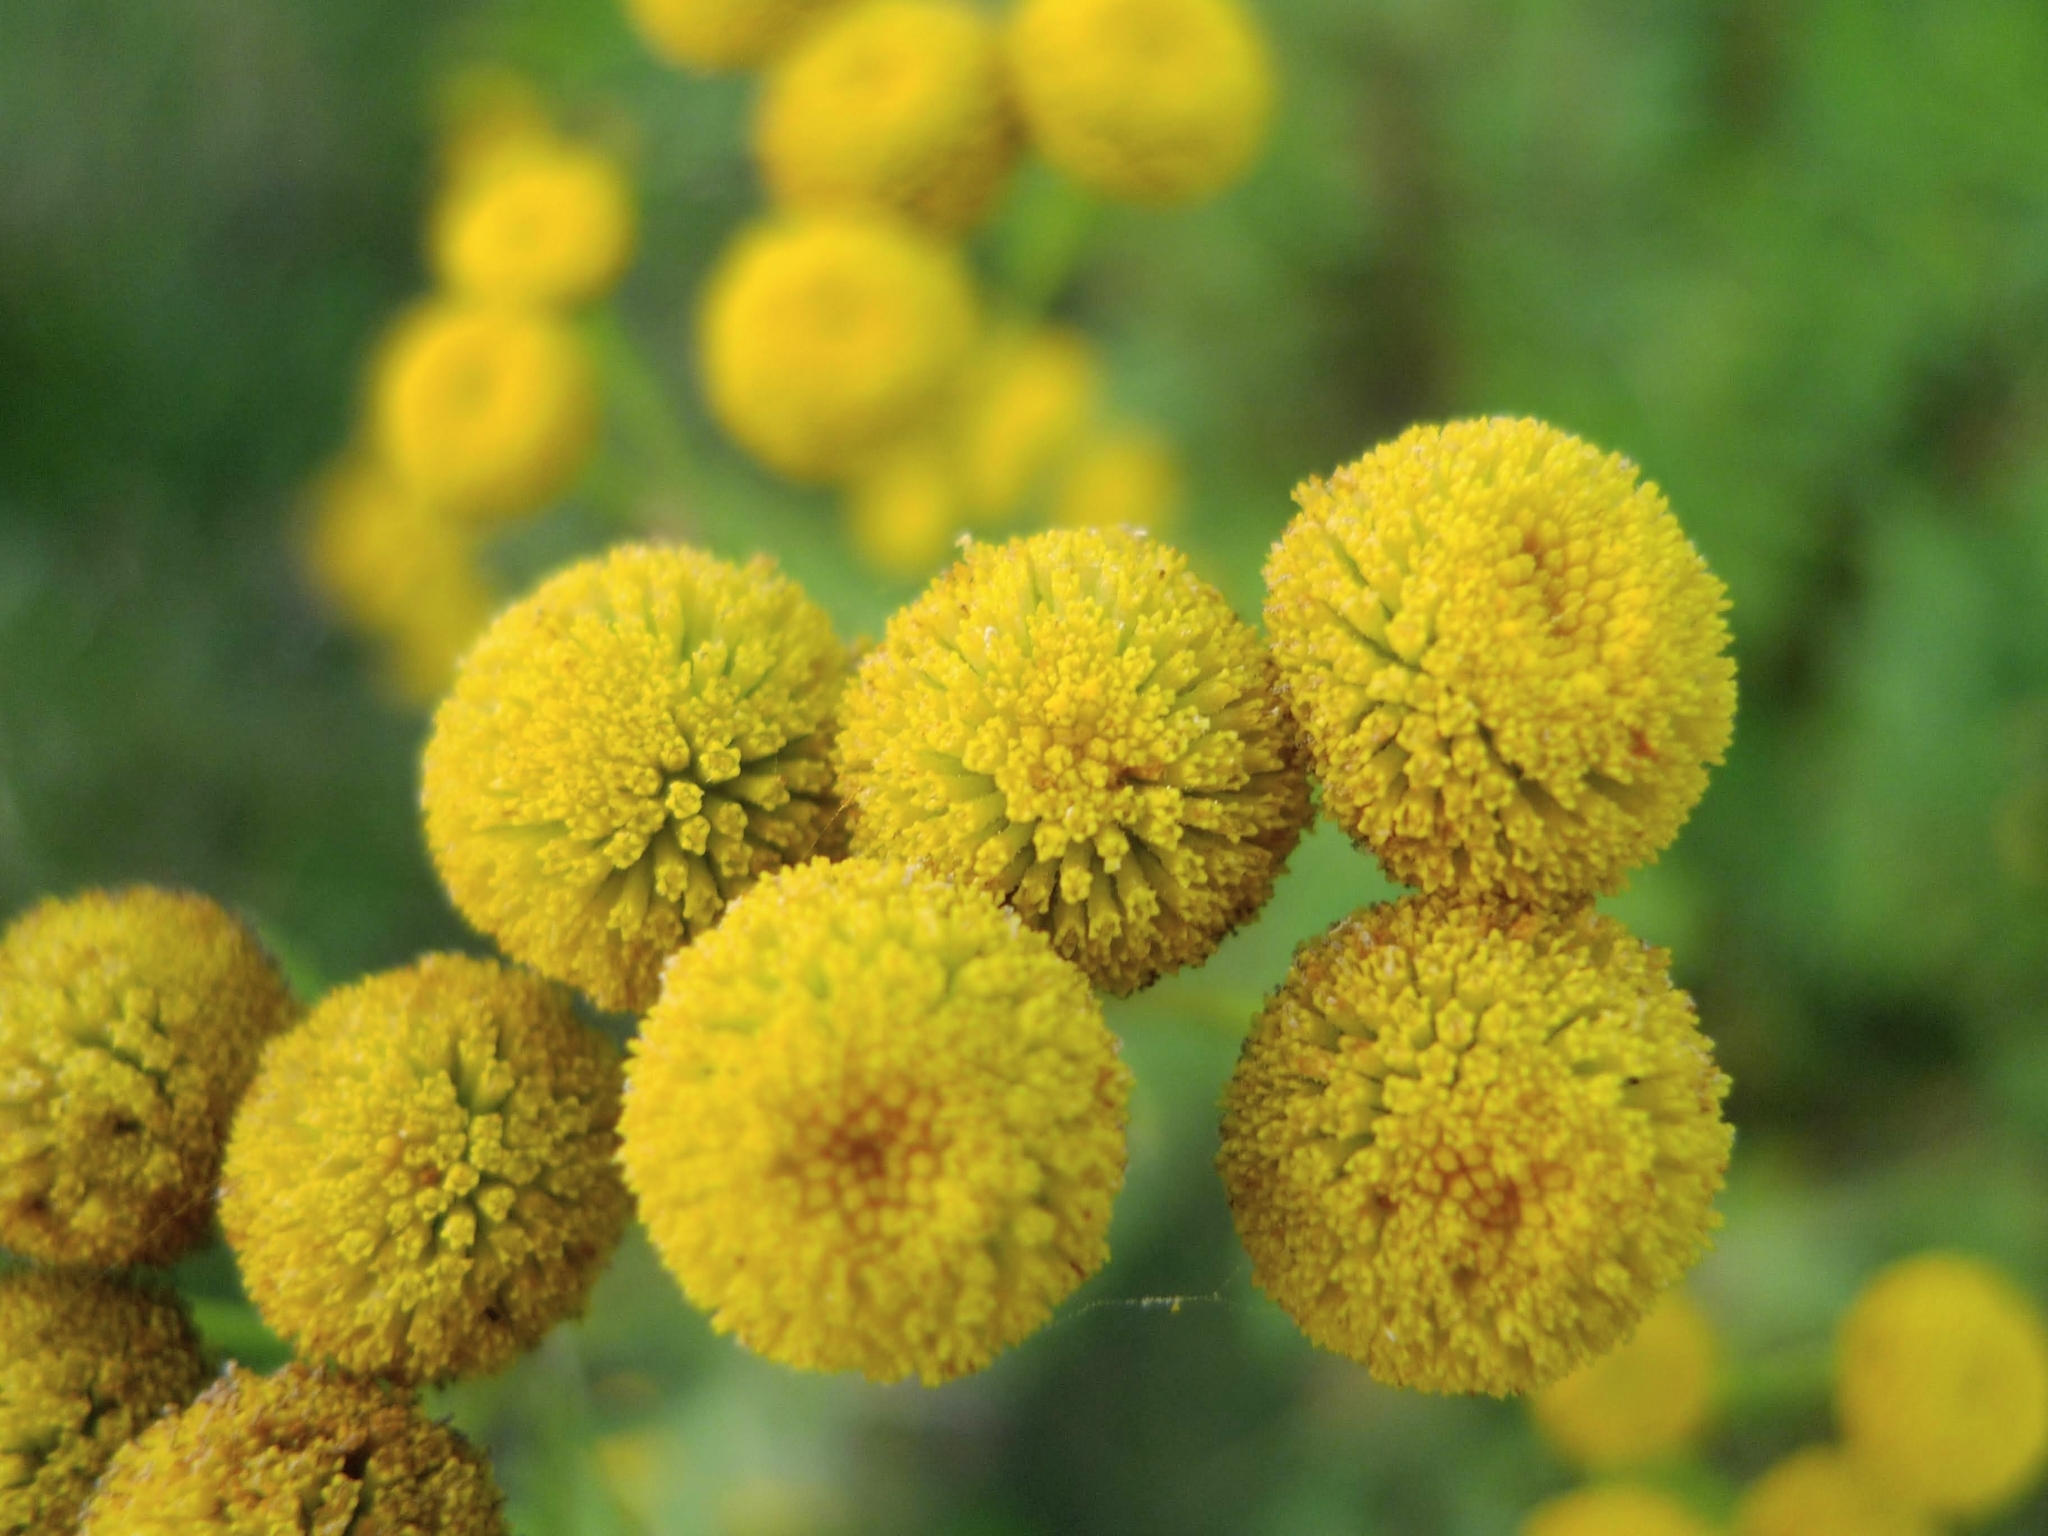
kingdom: Plantae
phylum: Tracheophyta
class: Magnoliopsida
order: Asterales
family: Asteraceae
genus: Tanacetum
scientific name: Tanacetum vulgare
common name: Common tansy
